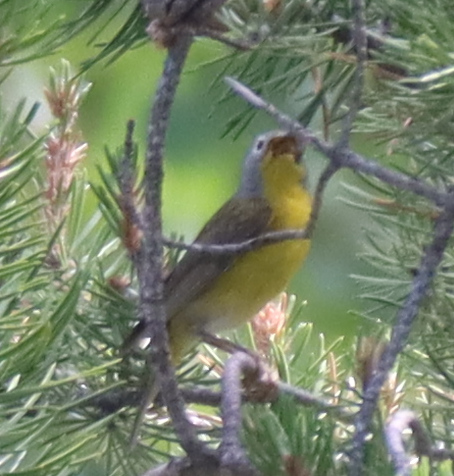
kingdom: Animalia
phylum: Chordata
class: Aves
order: Passeriformes
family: Parulidae
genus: Leiothlypis
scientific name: Leiothlypis ruficapilla
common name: Nashville warbler
